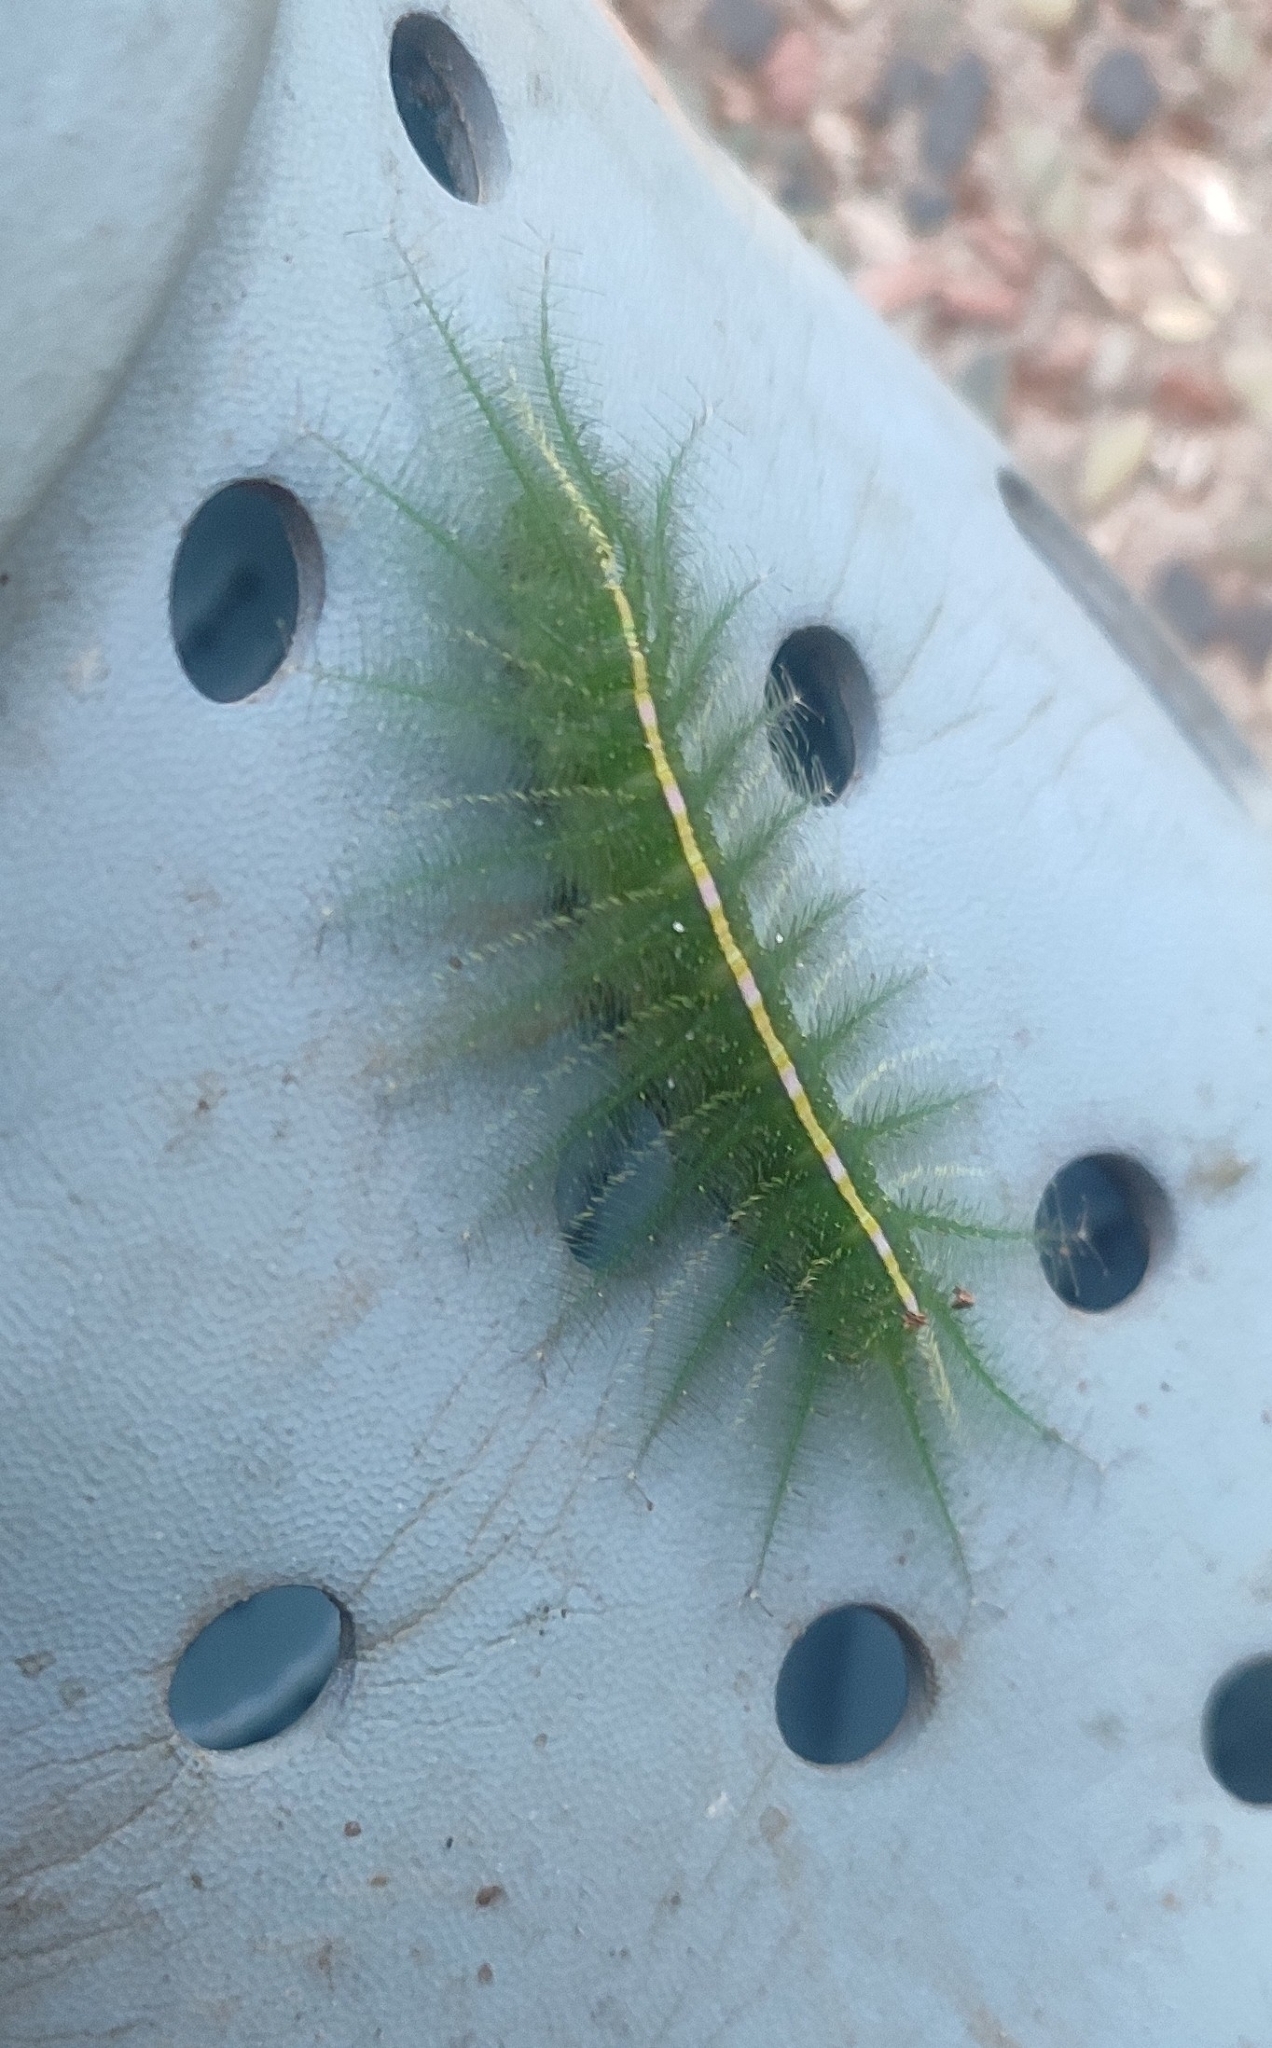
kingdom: Animalia
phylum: Arthropoda
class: Insecta
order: Lepidoptera
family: Nymphalidae
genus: Euthalia
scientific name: Euthalia aconthea
